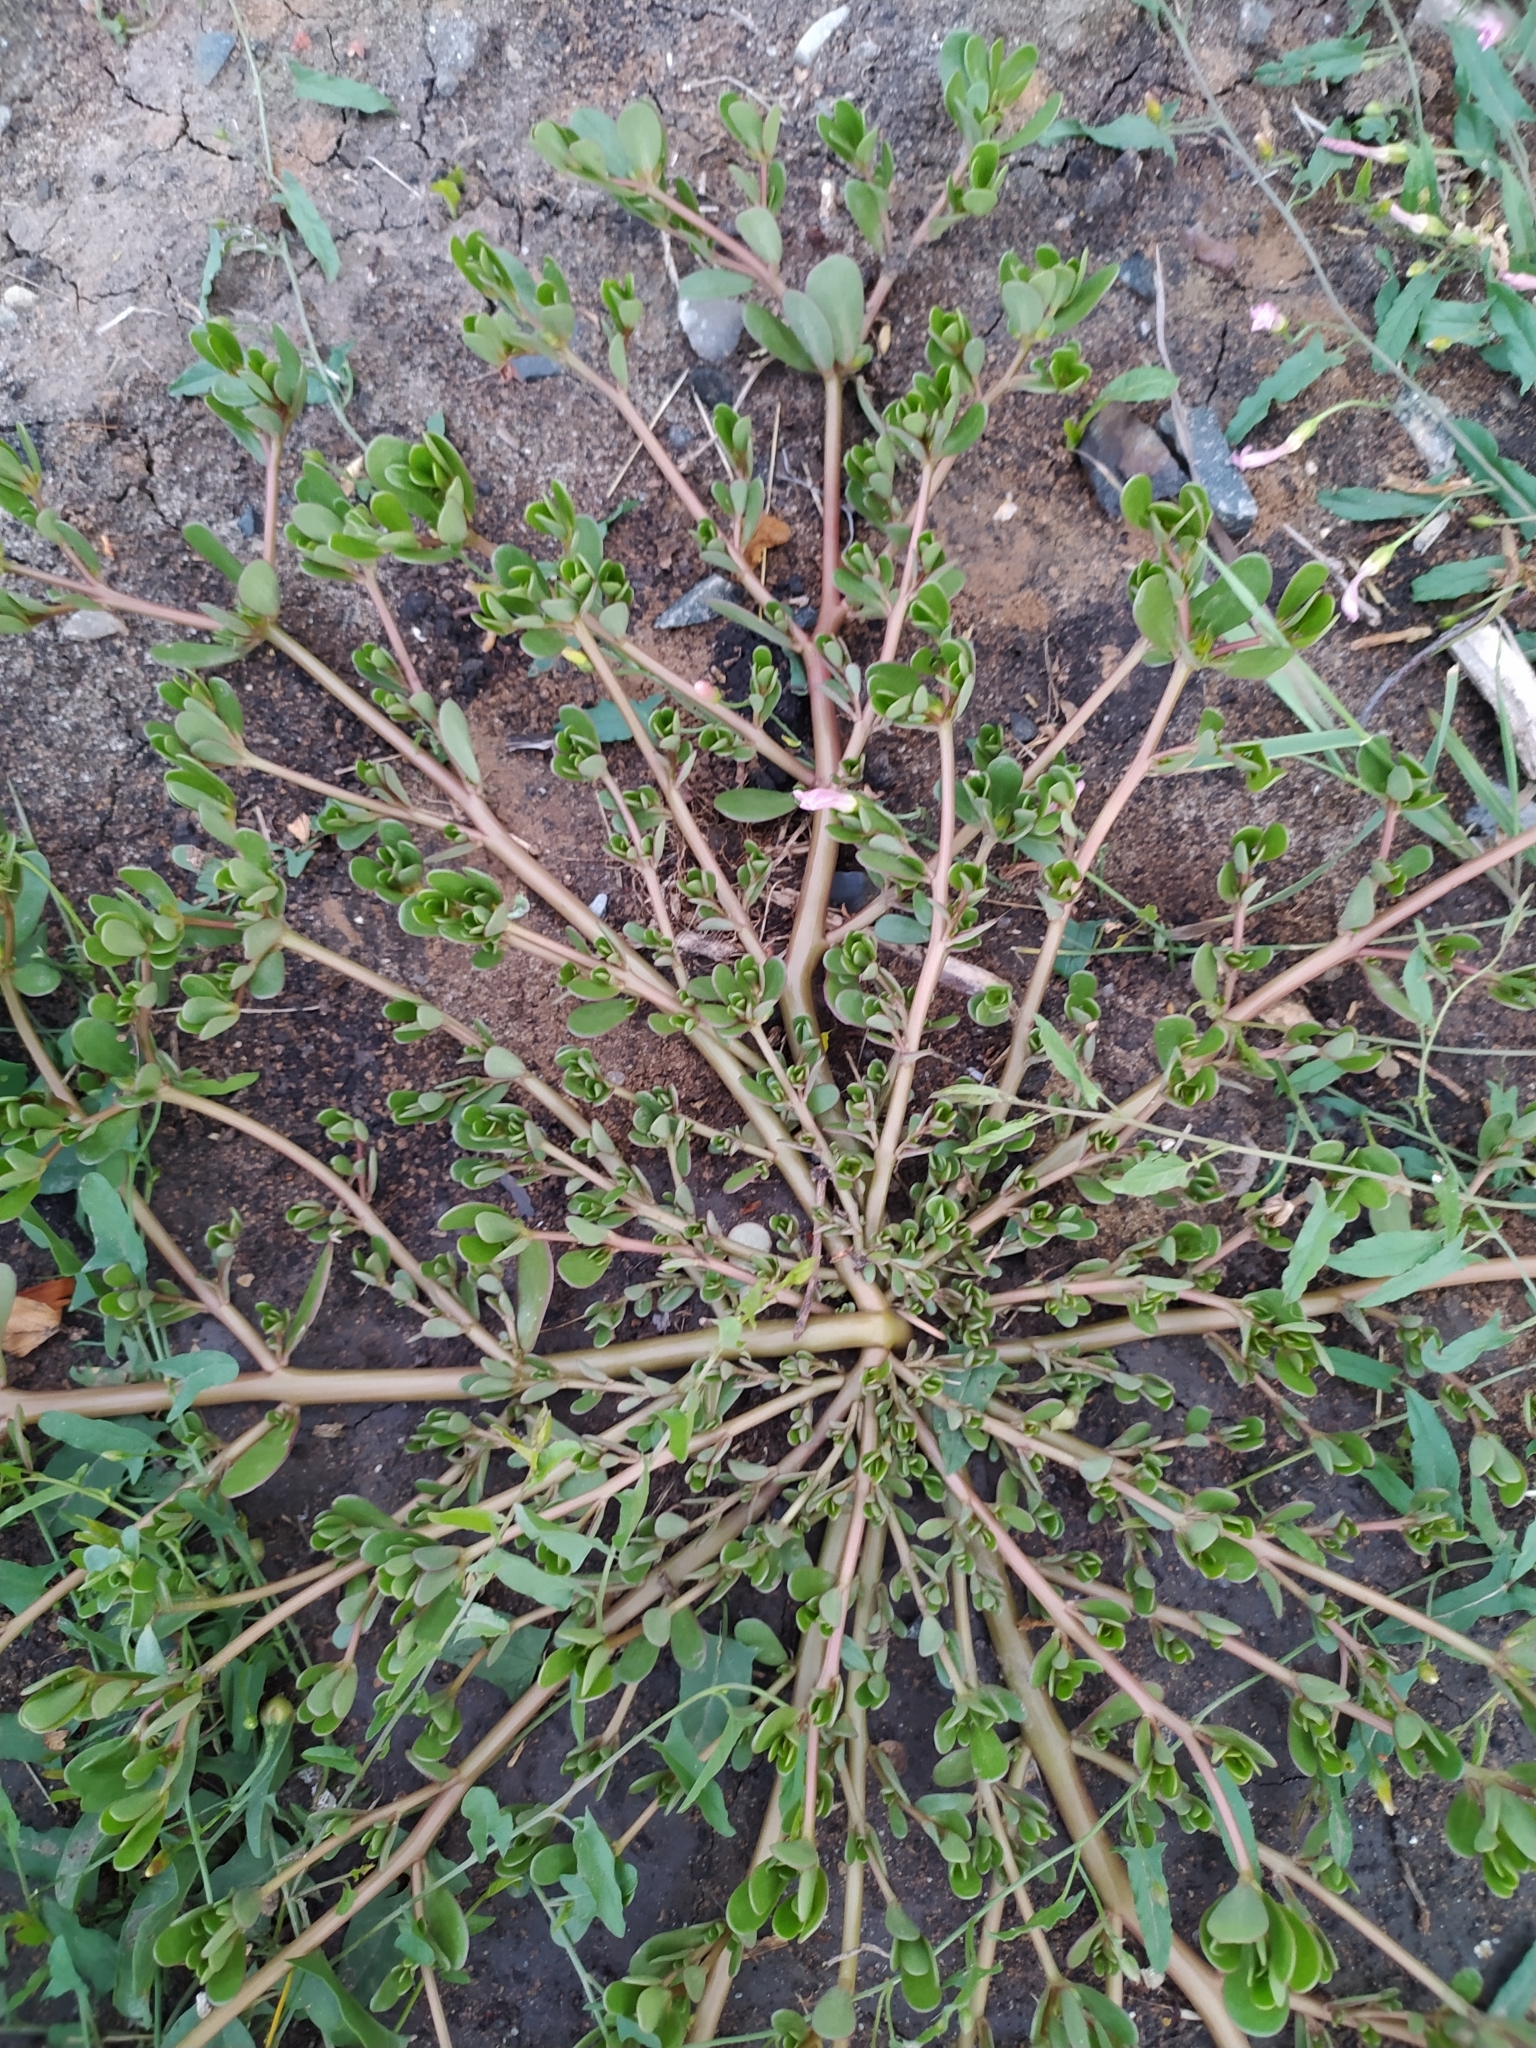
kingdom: Plantae
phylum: Tracheophyta
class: Magnoliopsida
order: Caryophyllales
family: Portulacaceae
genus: Portulaca
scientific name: Portulaca oleracea
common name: Common purslane
